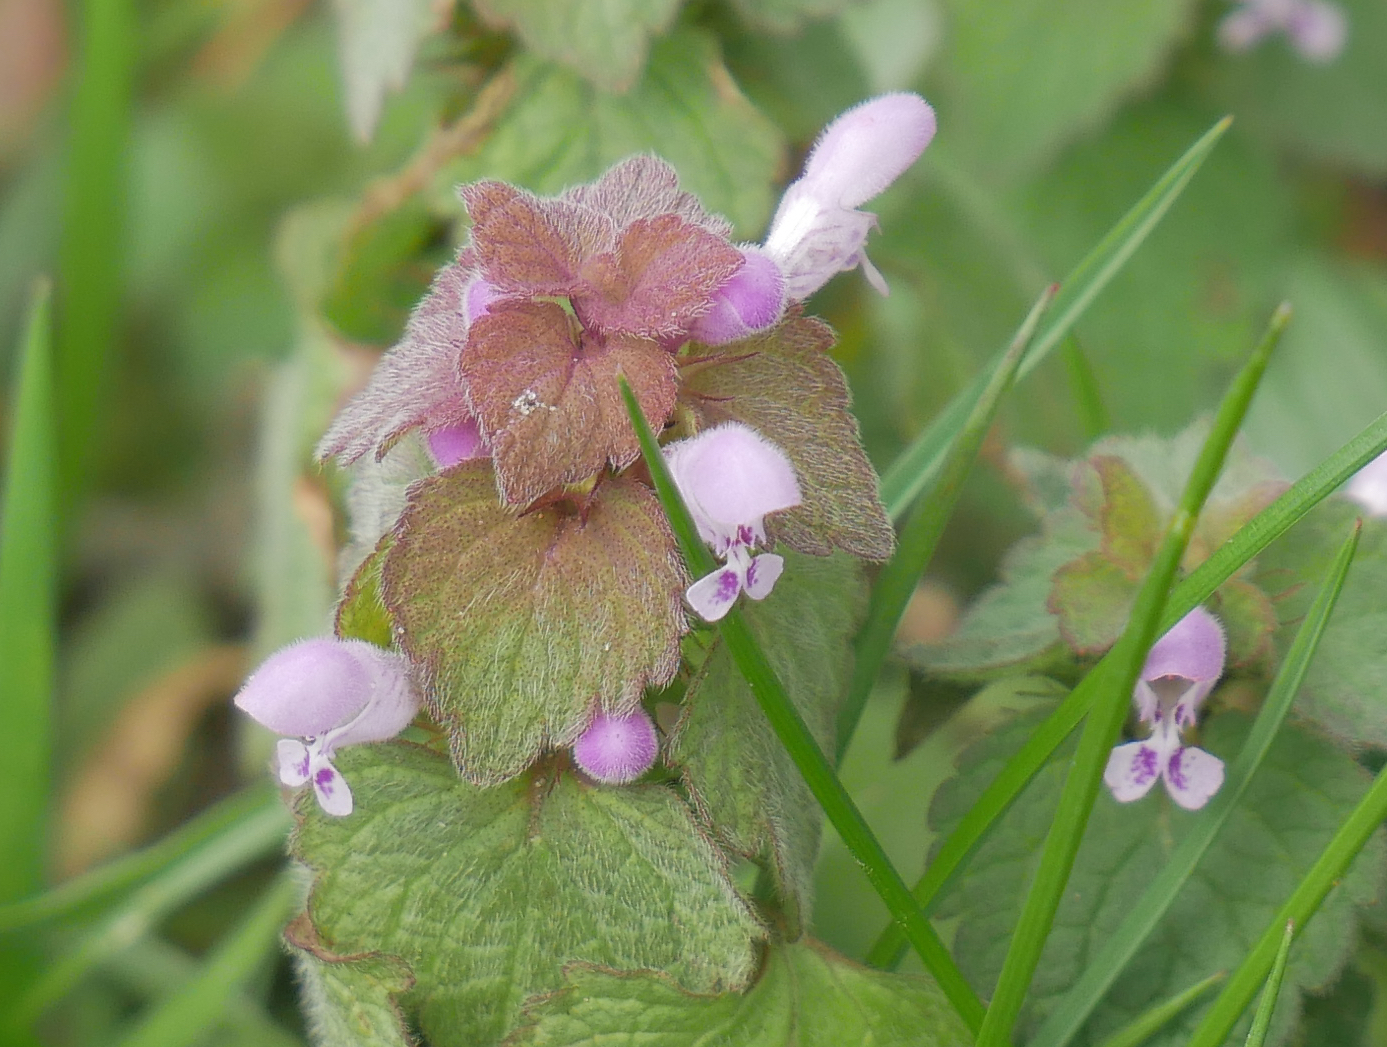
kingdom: Plantae
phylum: Tracheophyta
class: Magnoliopsida
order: Lamiales
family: Lamiaceae
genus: Lamium
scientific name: Lamium purpureum
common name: Red dead-nettle
